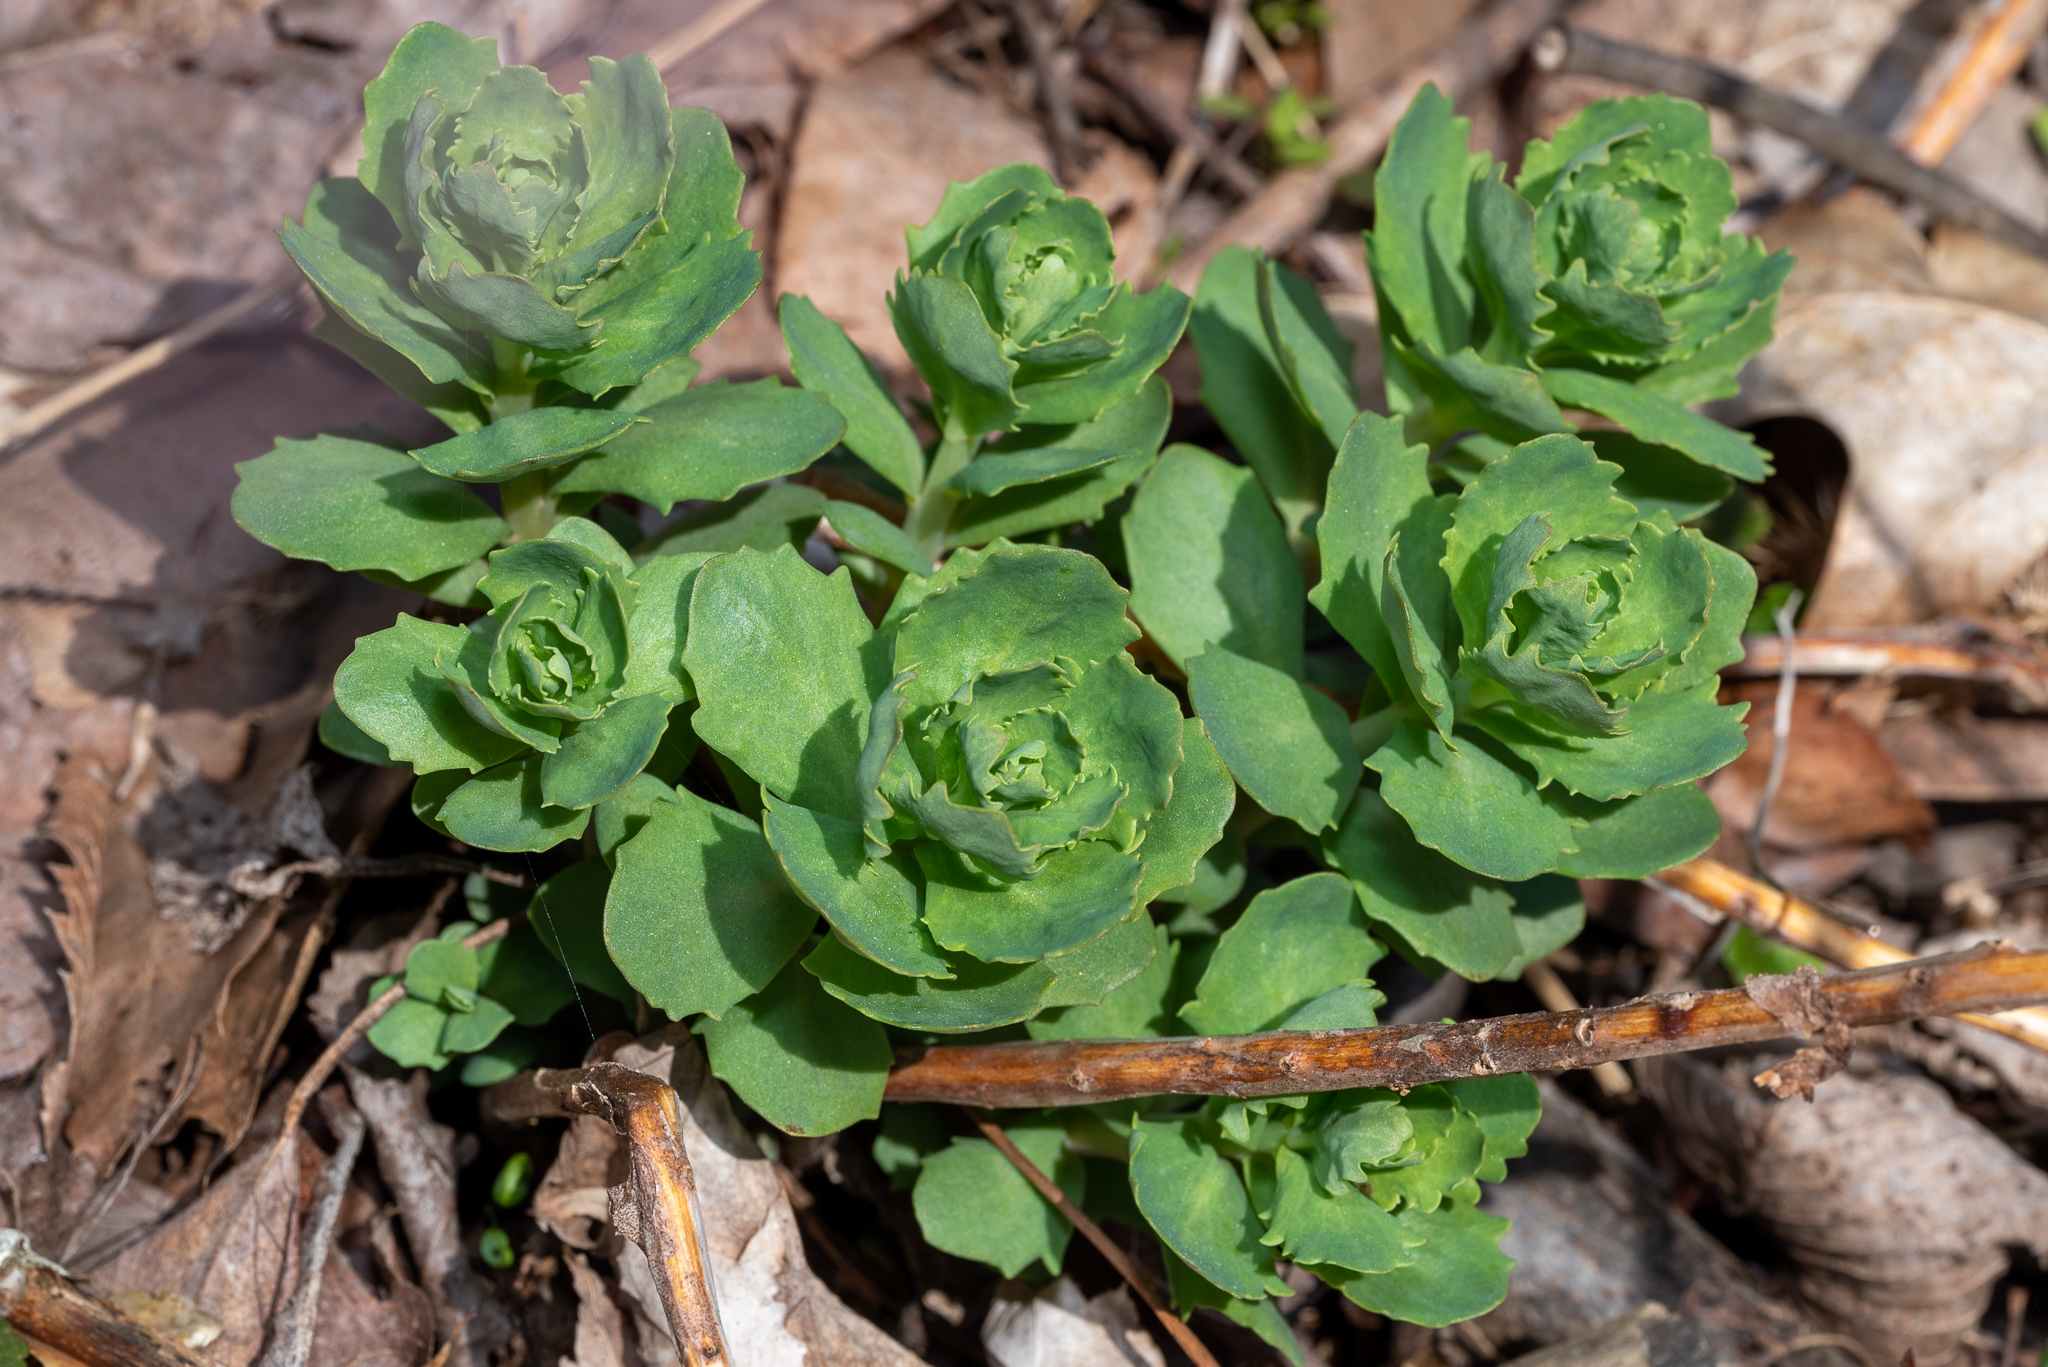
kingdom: Plantae
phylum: Tracheophyta
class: Magnoliopsida
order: Saxifragales
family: Crassulaceae
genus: Hylotelephium
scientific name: Hylotelephium telephium
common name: Live-forever
